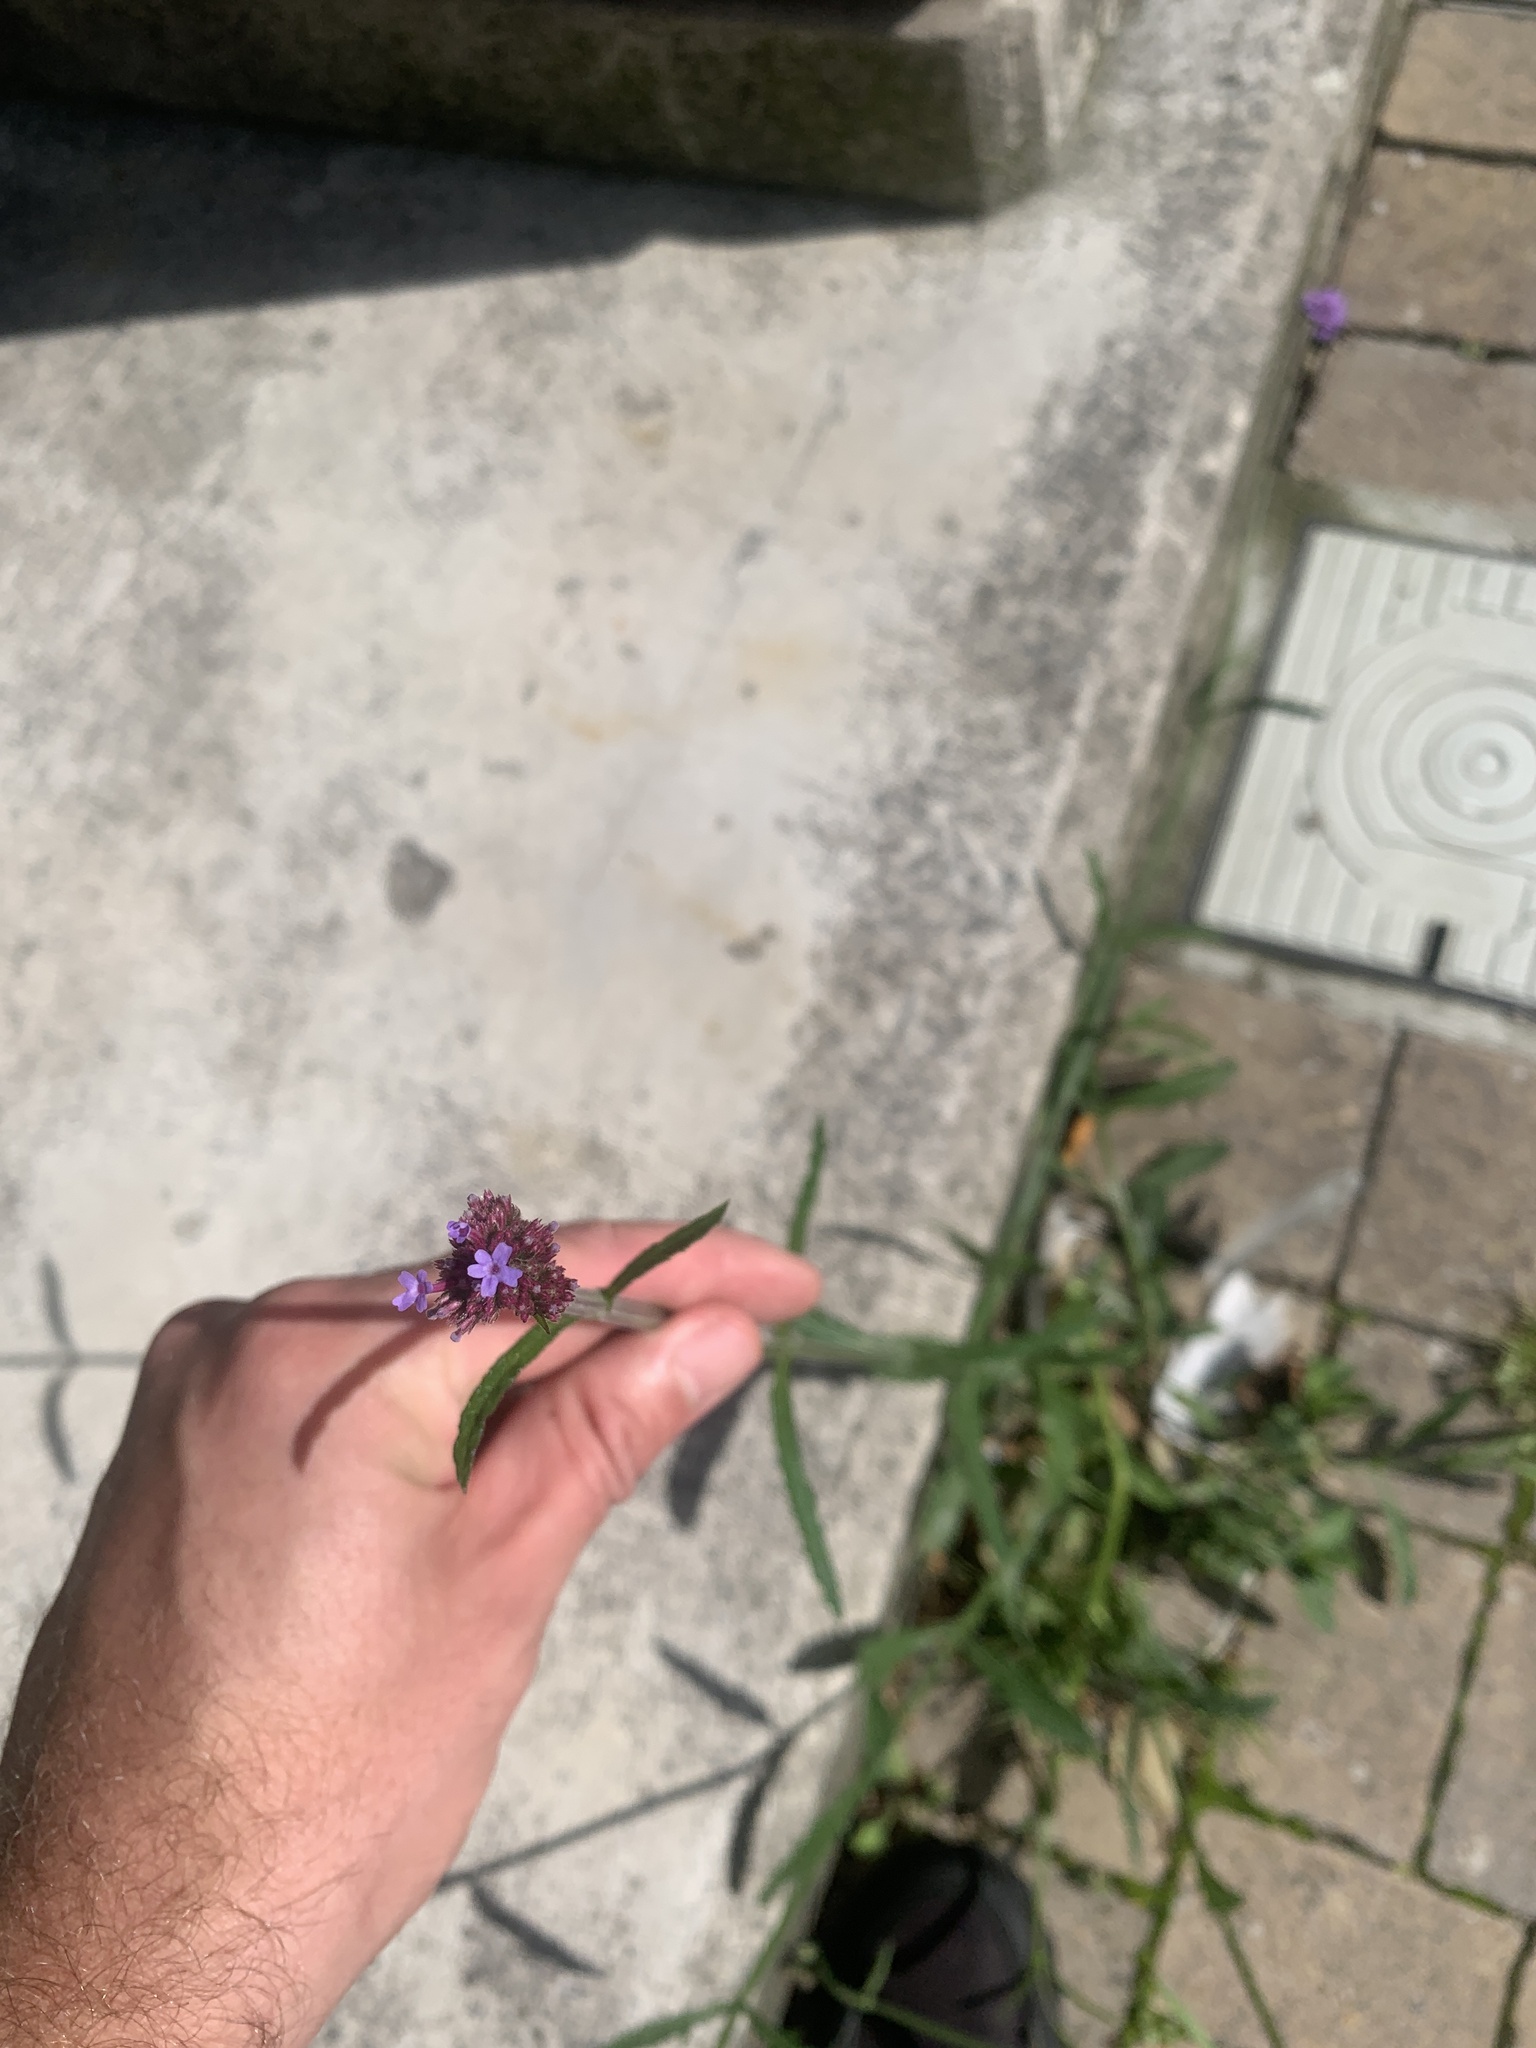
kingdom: Plantae
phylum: Tracheophyta
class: Magnoliopsida
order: Lamiales
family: Verbenaceae
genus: Verbena
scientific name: Verbena bonariensis
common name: Purpletop vervain
